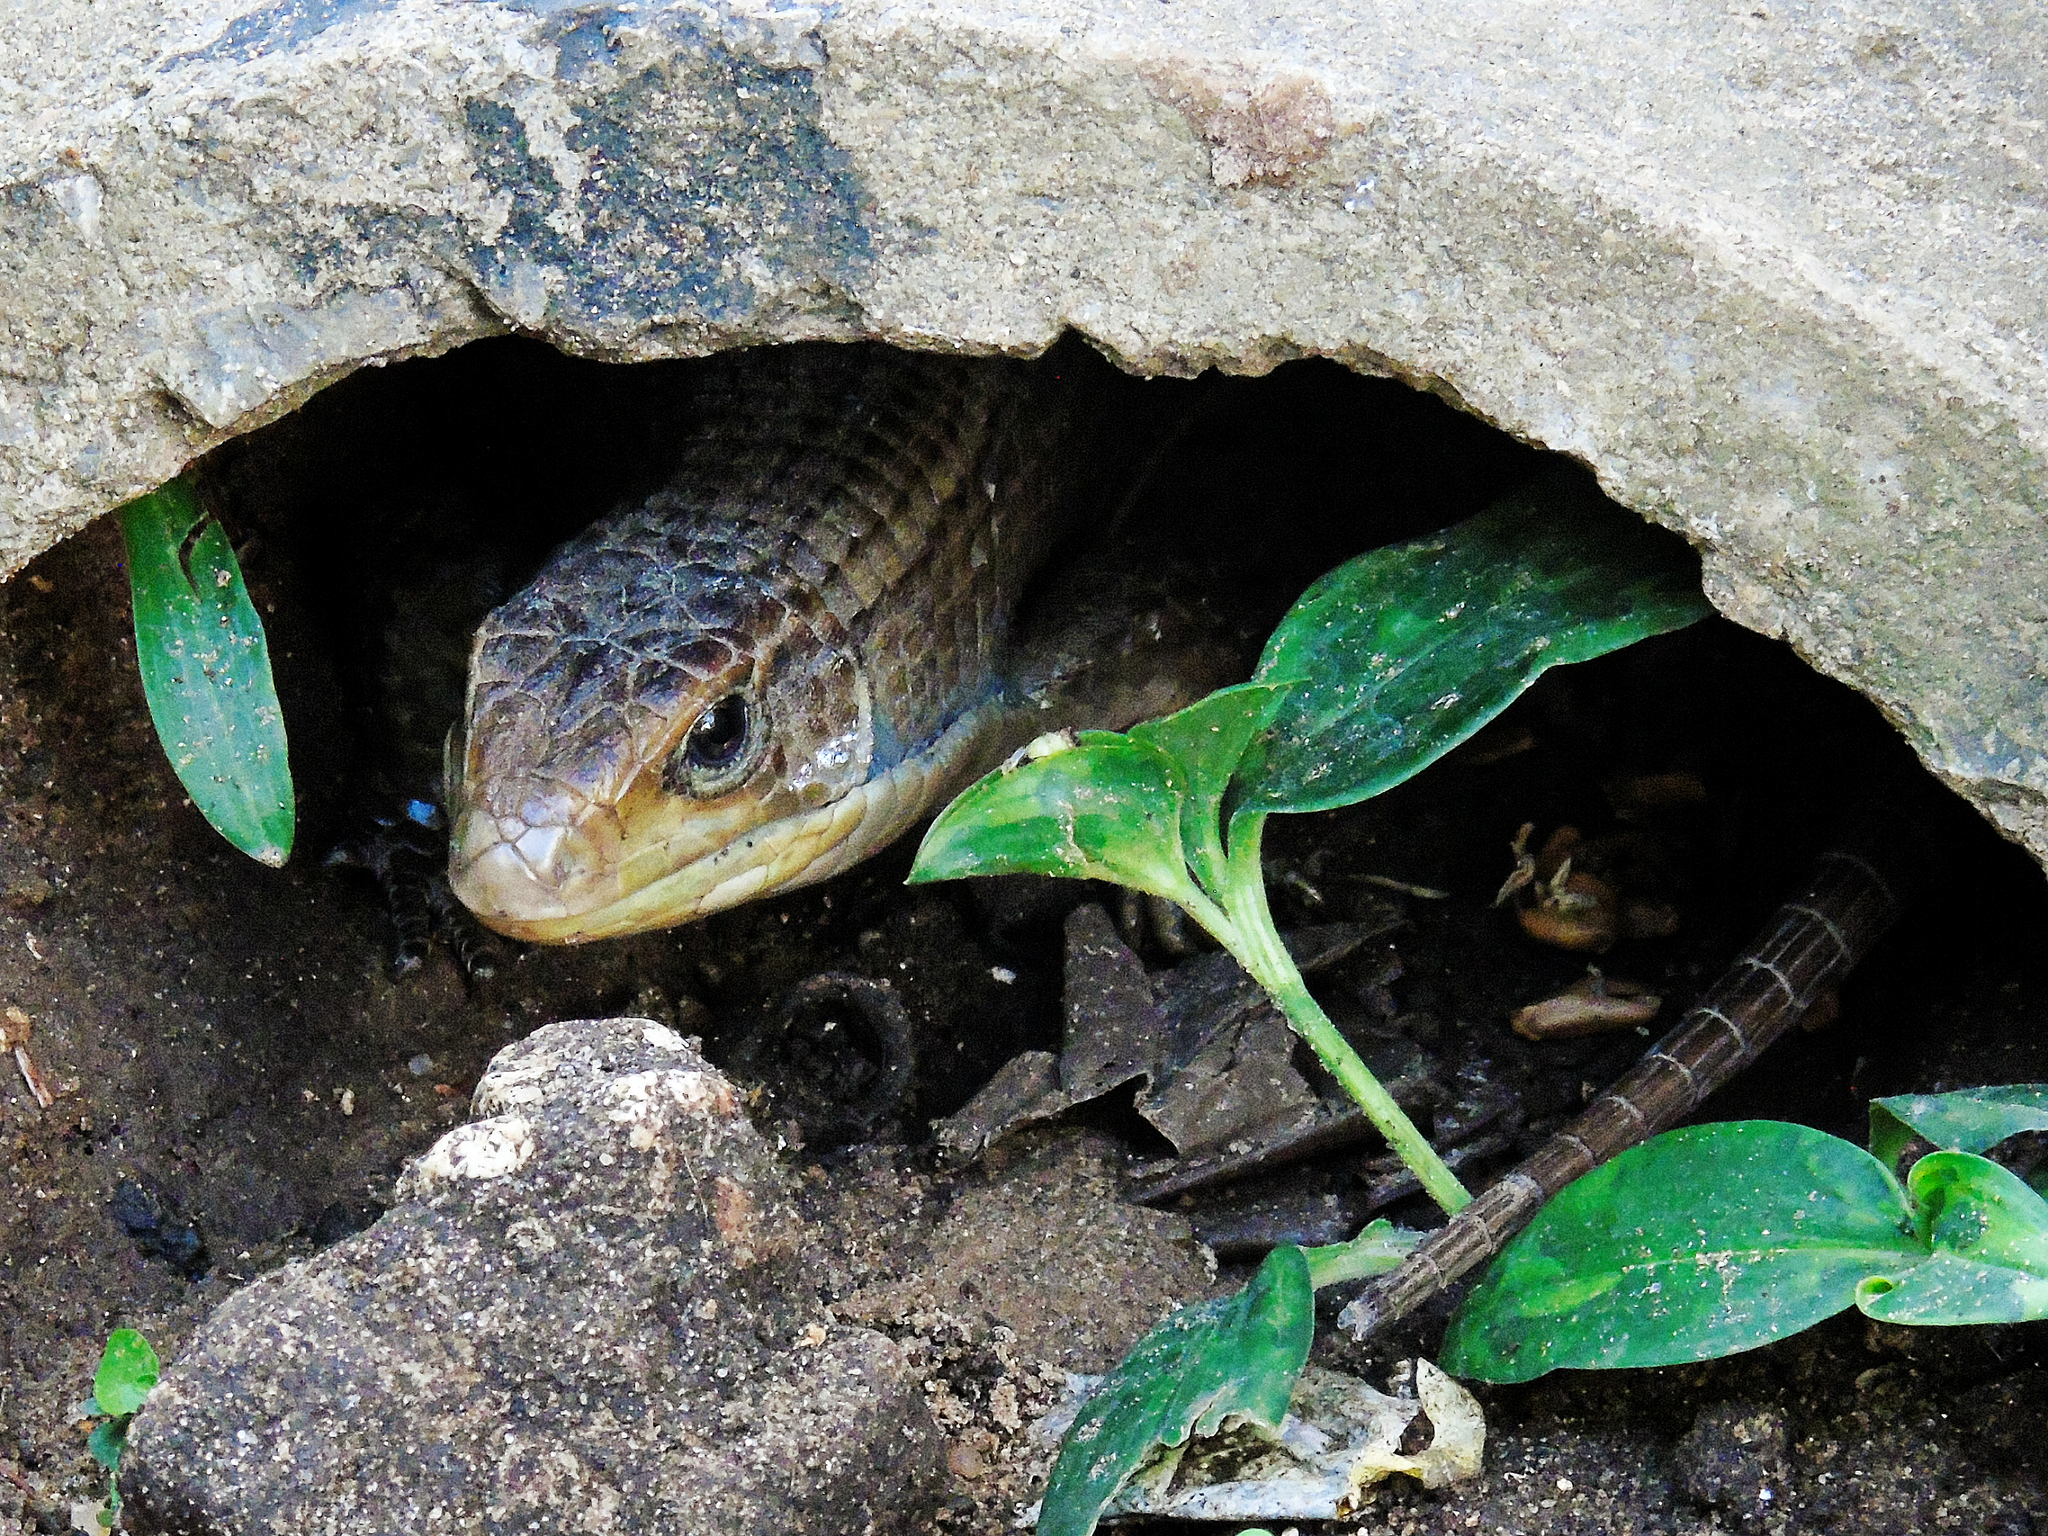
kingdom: Animalia
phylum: Chordata
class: Squamata
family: Gerrhosauridae
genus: Broadleysaurus
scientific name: Broadleysaurus major
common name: Rough-scaled plated lizard
